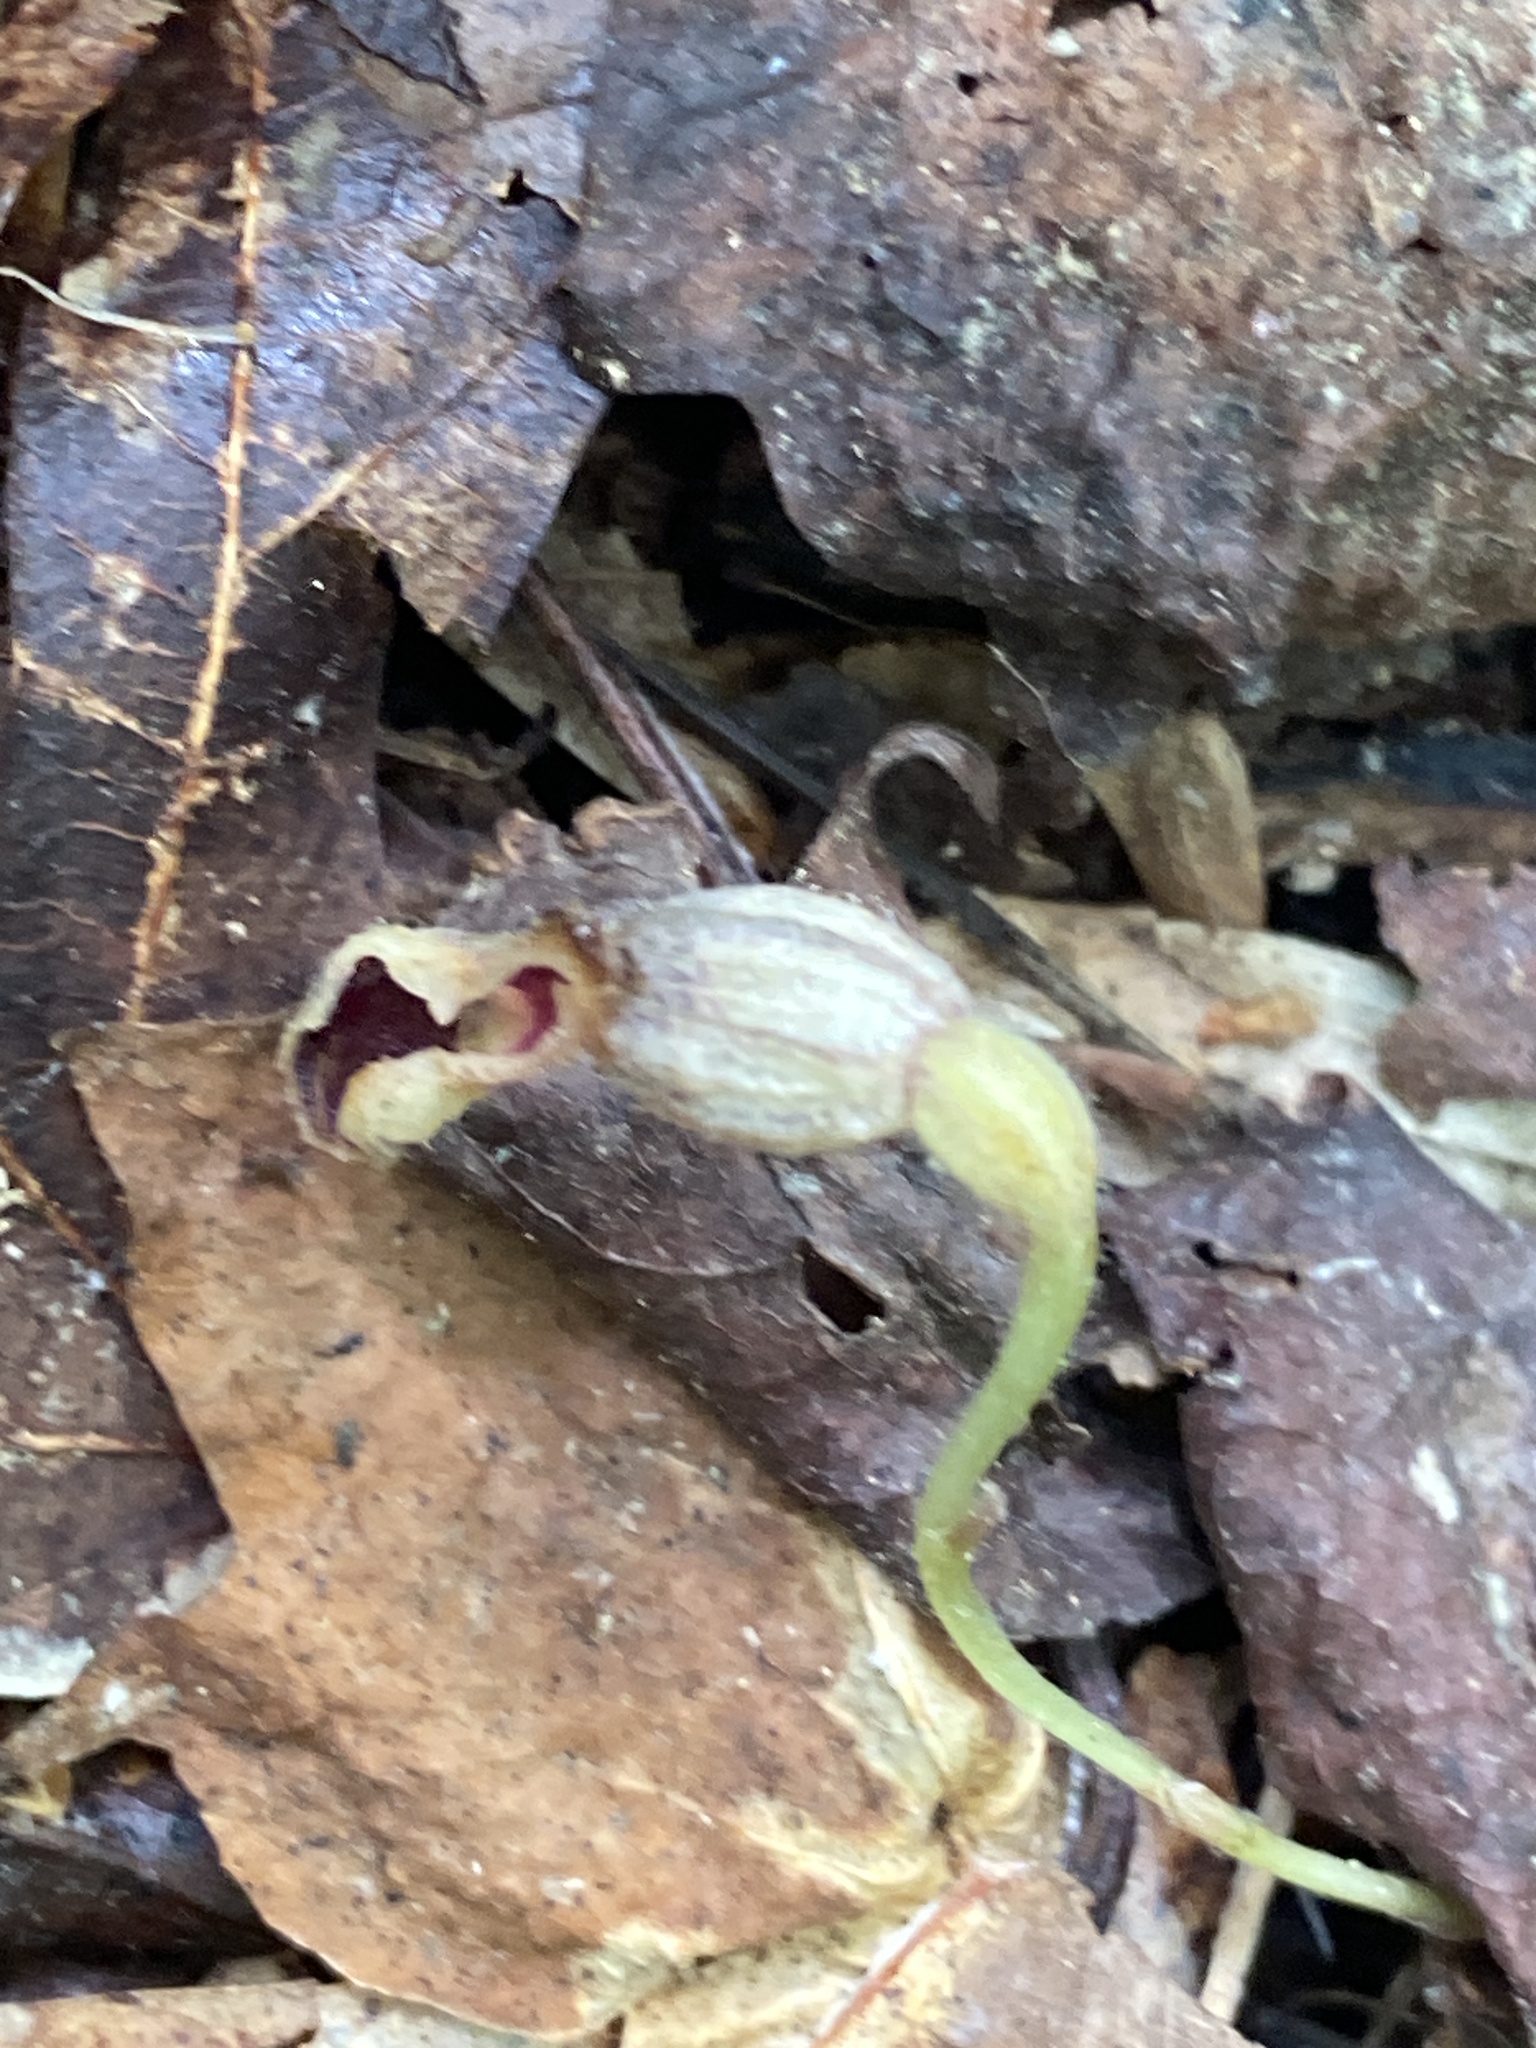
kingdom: Plantae
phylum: Tracheophyta
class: Magnoliopsida
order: Piperales
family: Aristolochiaceae
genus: Endodeca
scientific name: Endodeca serpentaria
